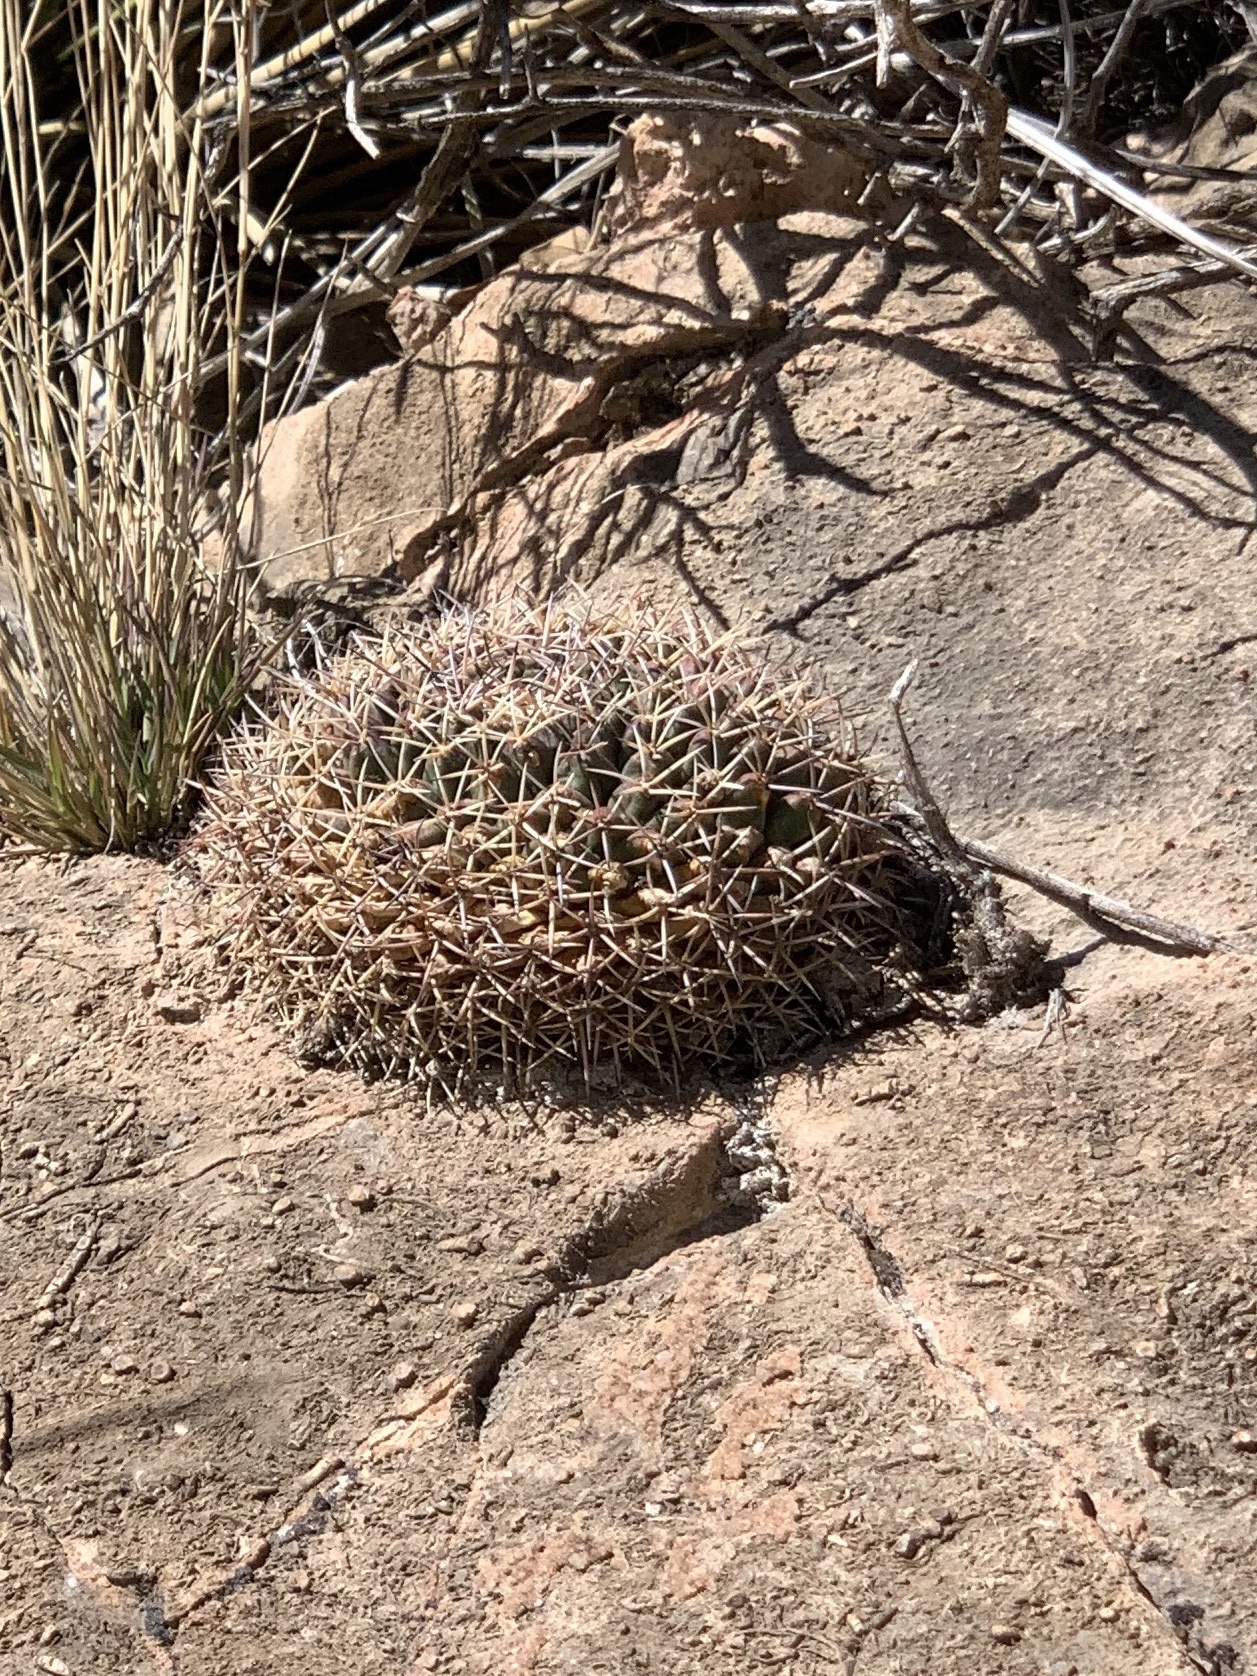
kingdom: Plantae
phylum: Tracheophyta
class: Magnoliopsida
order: Caryophyllales
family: Cactaceae
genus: Mammillaria
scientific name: Mammillaria heyderi
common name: Little nipple cactus
